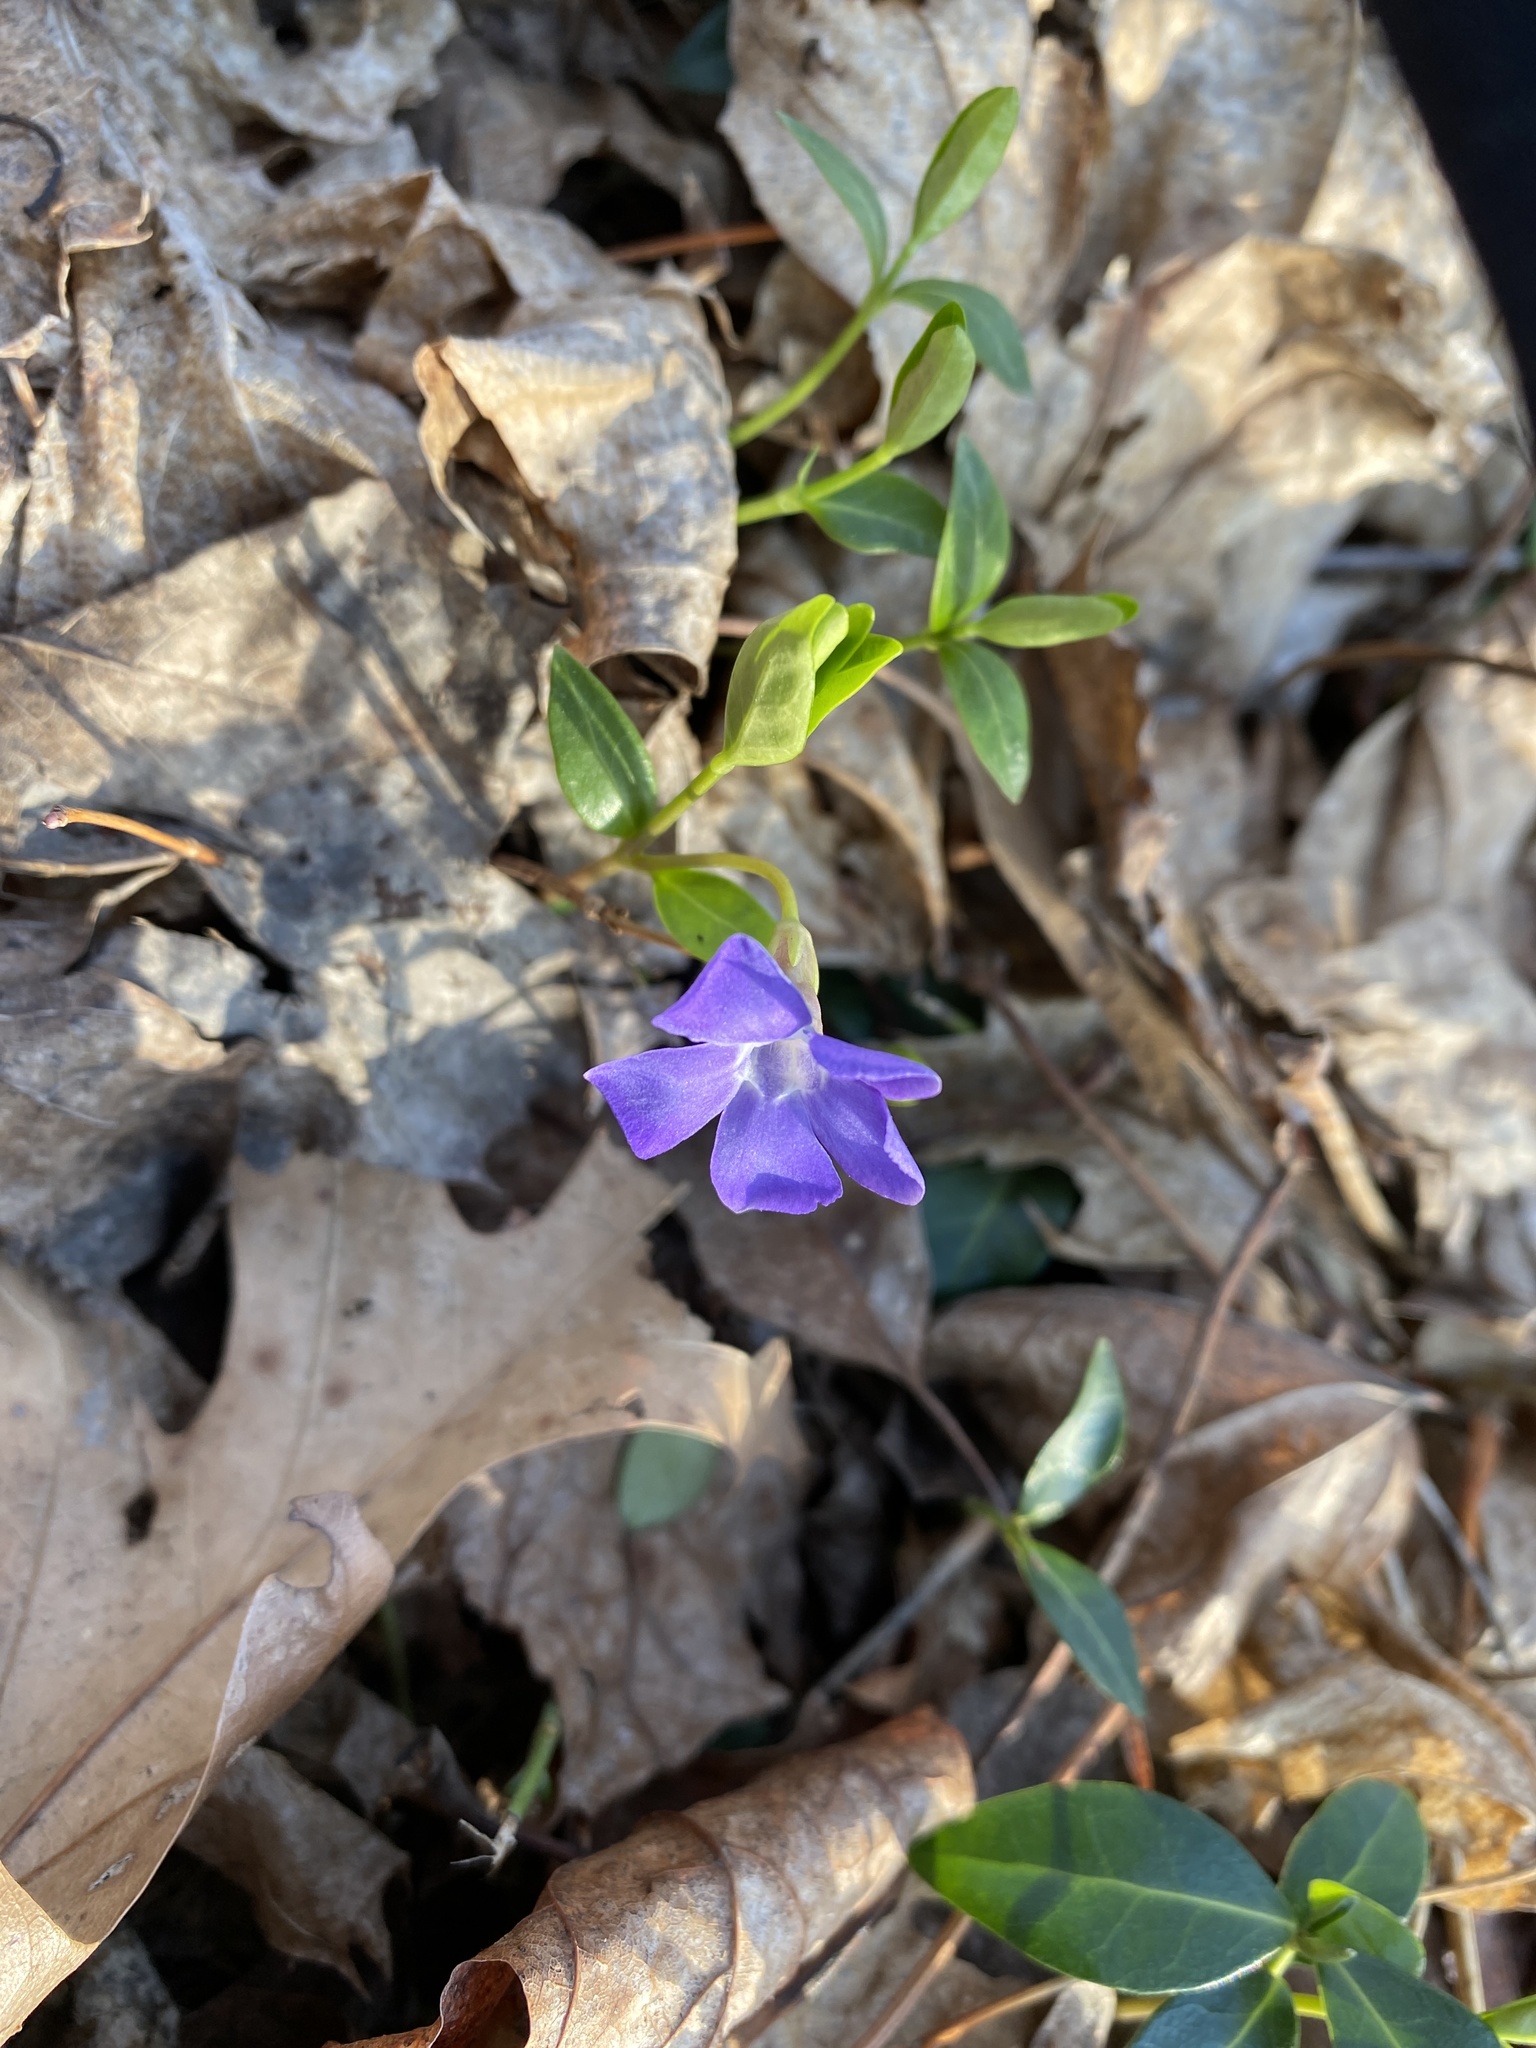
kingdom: Plantae
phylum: Tracheophyta
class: Magnoliopsida
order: Gentianales
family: Apocynaceae
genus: Vinca
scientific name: Vinca minor
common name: Lesser periwinkle
